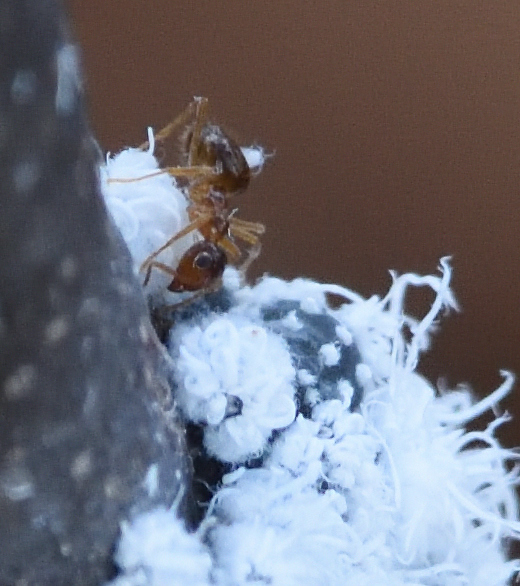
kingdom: Animalia
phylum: Arthropoda
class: Insecta
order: Hymenoptera
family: Formicidae
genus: Prenolepis
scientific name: Prenolepis imparis
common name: Small honey ant
